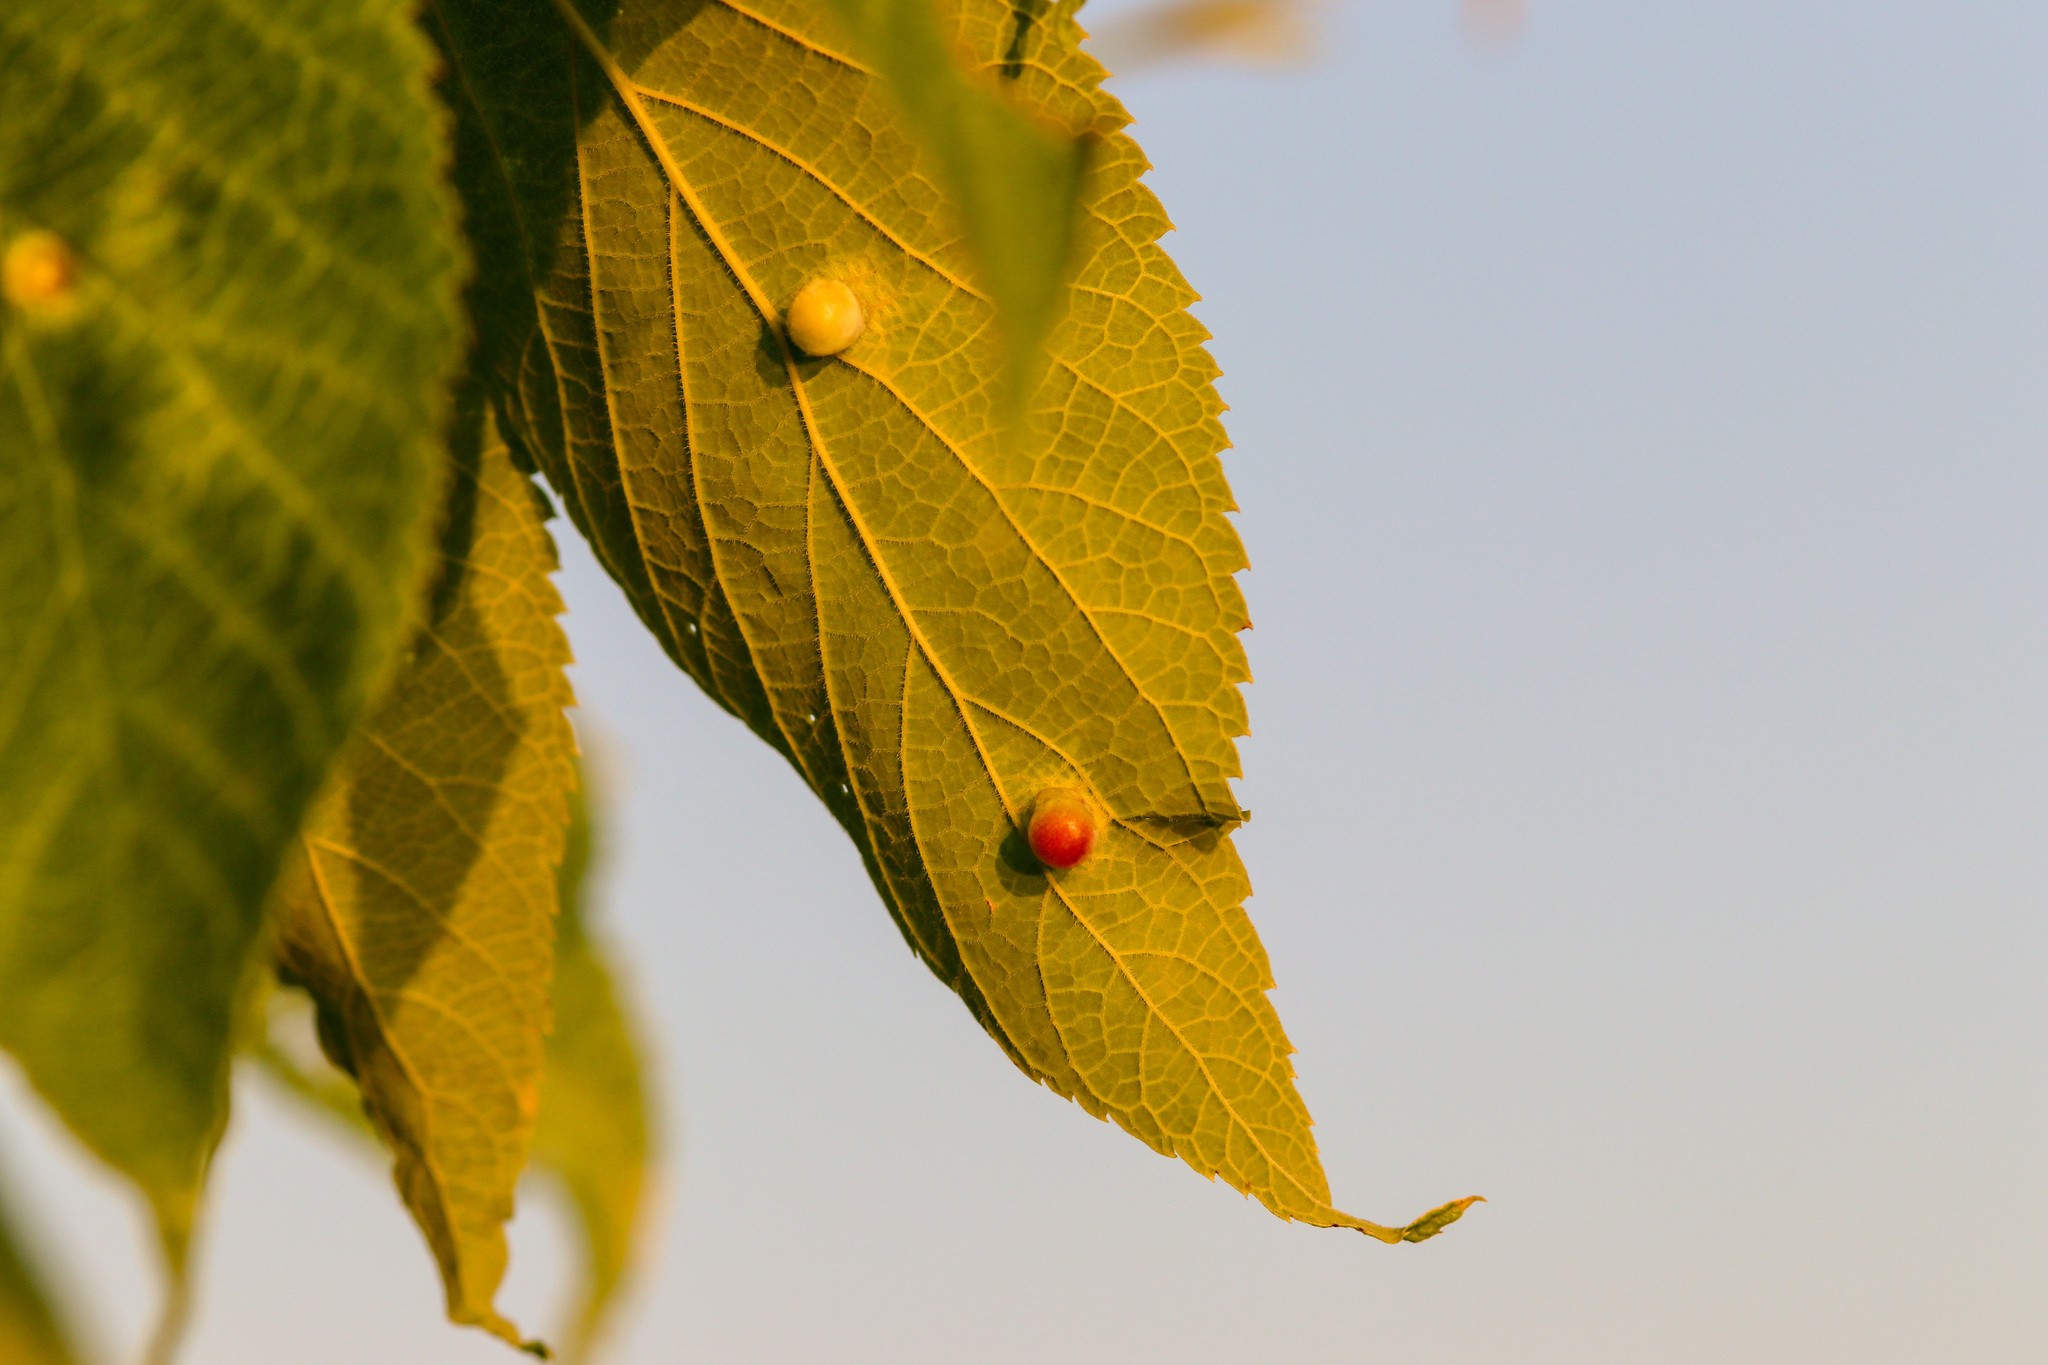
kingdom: Animalia
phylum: Arthropoda
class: Insecta
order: Hemiptera
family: Aphalaridae
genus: Pachypsylla
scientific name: Pachypsylla celtidismamma
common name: Hackberry nipplegall psyllid
